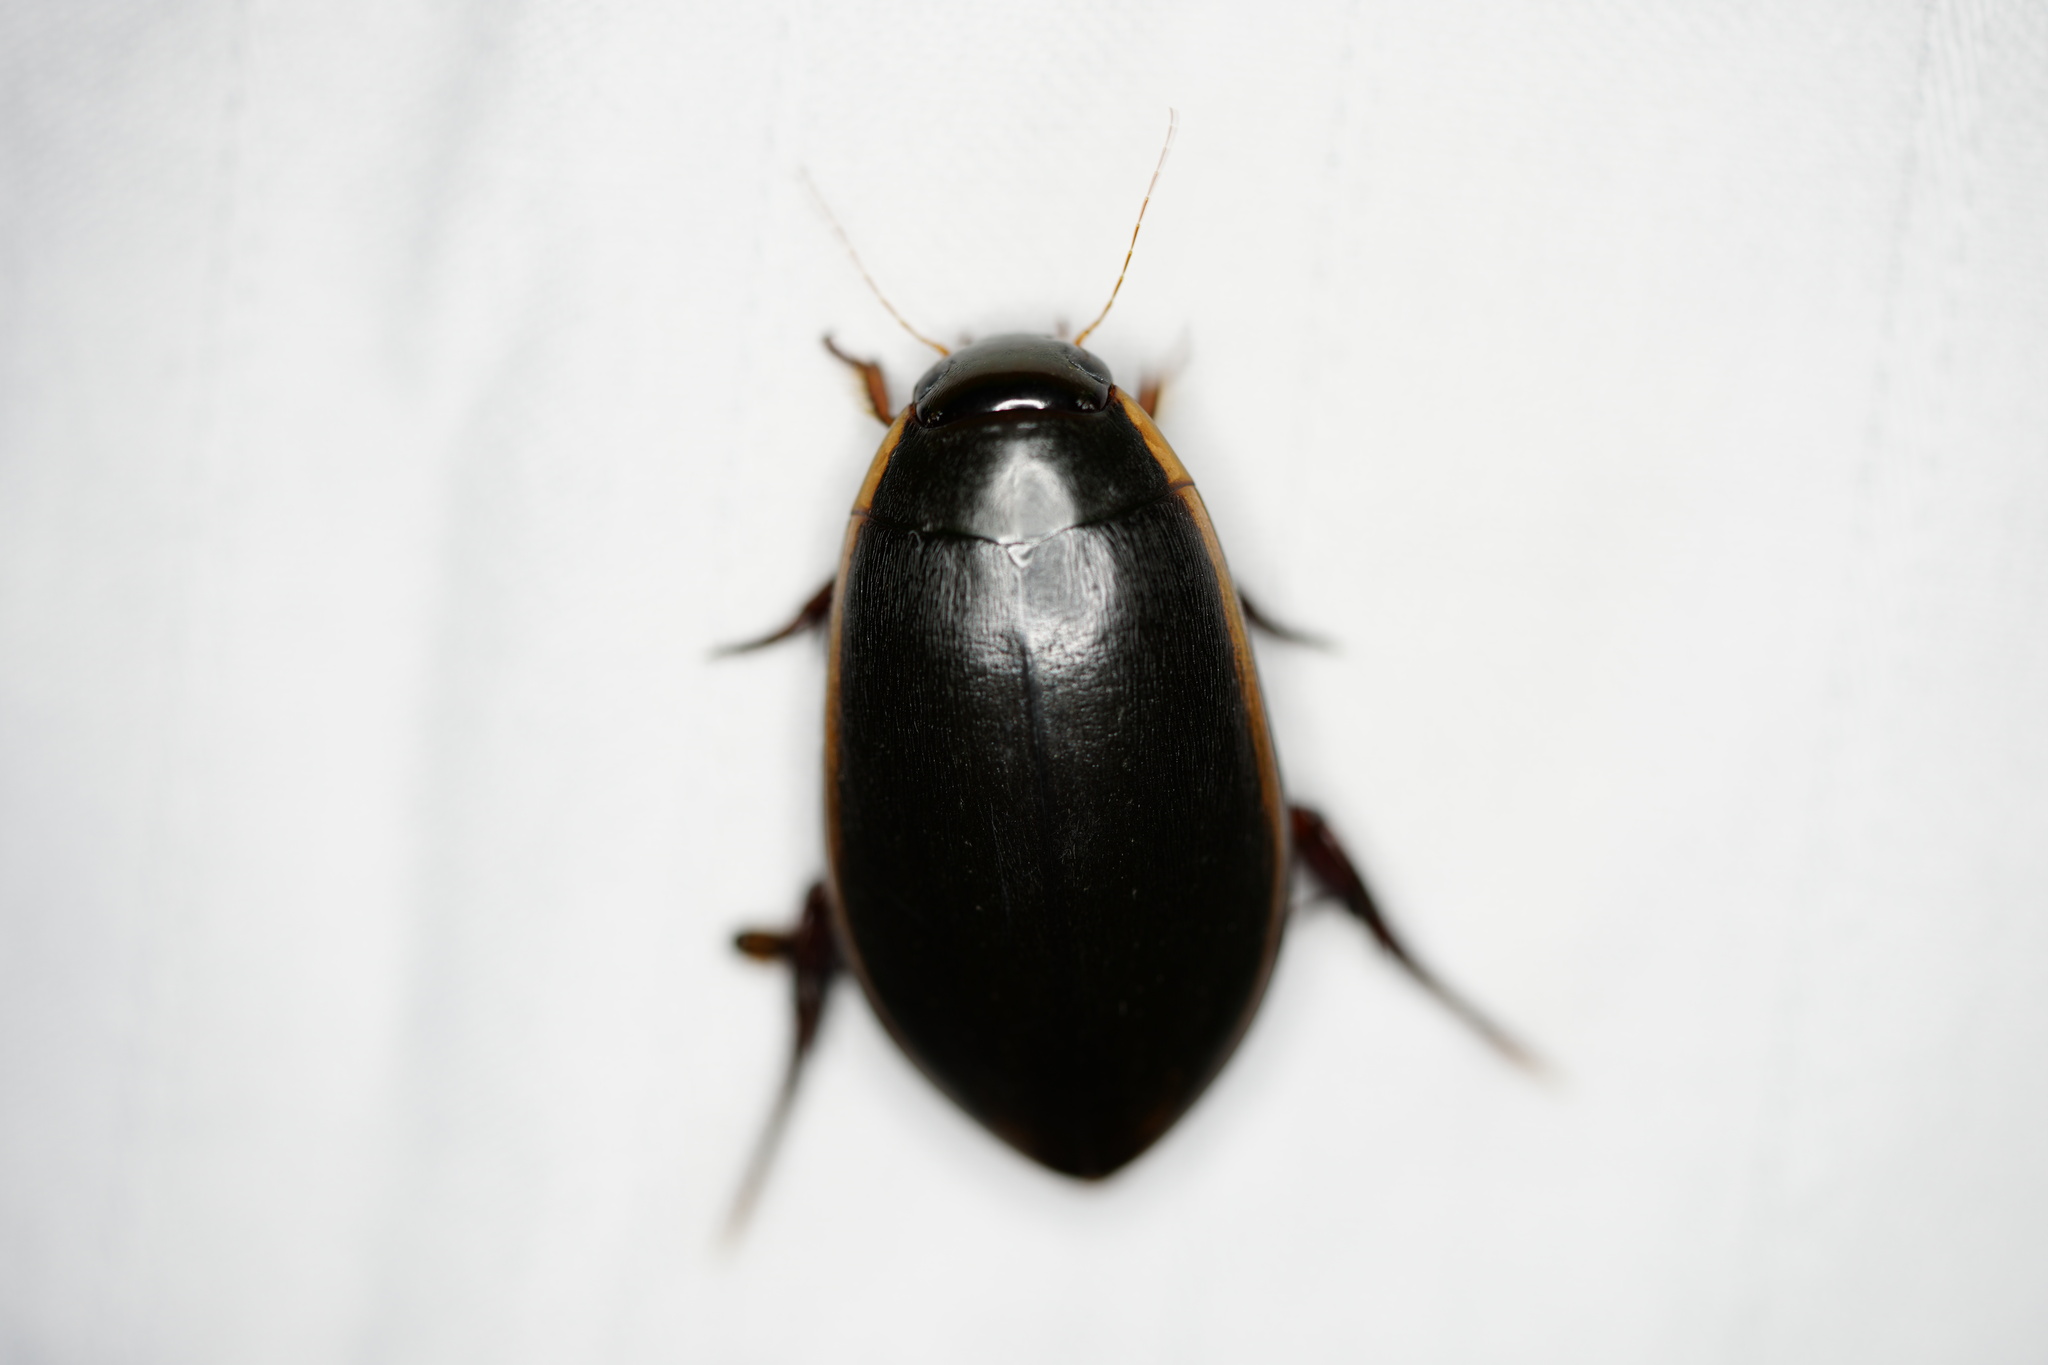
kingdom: Animalia
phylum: Arthropoda
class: Insecta
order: Coleoptera
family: Dytiscidae
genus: Cybister
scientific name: Cybister fimbriolatus
